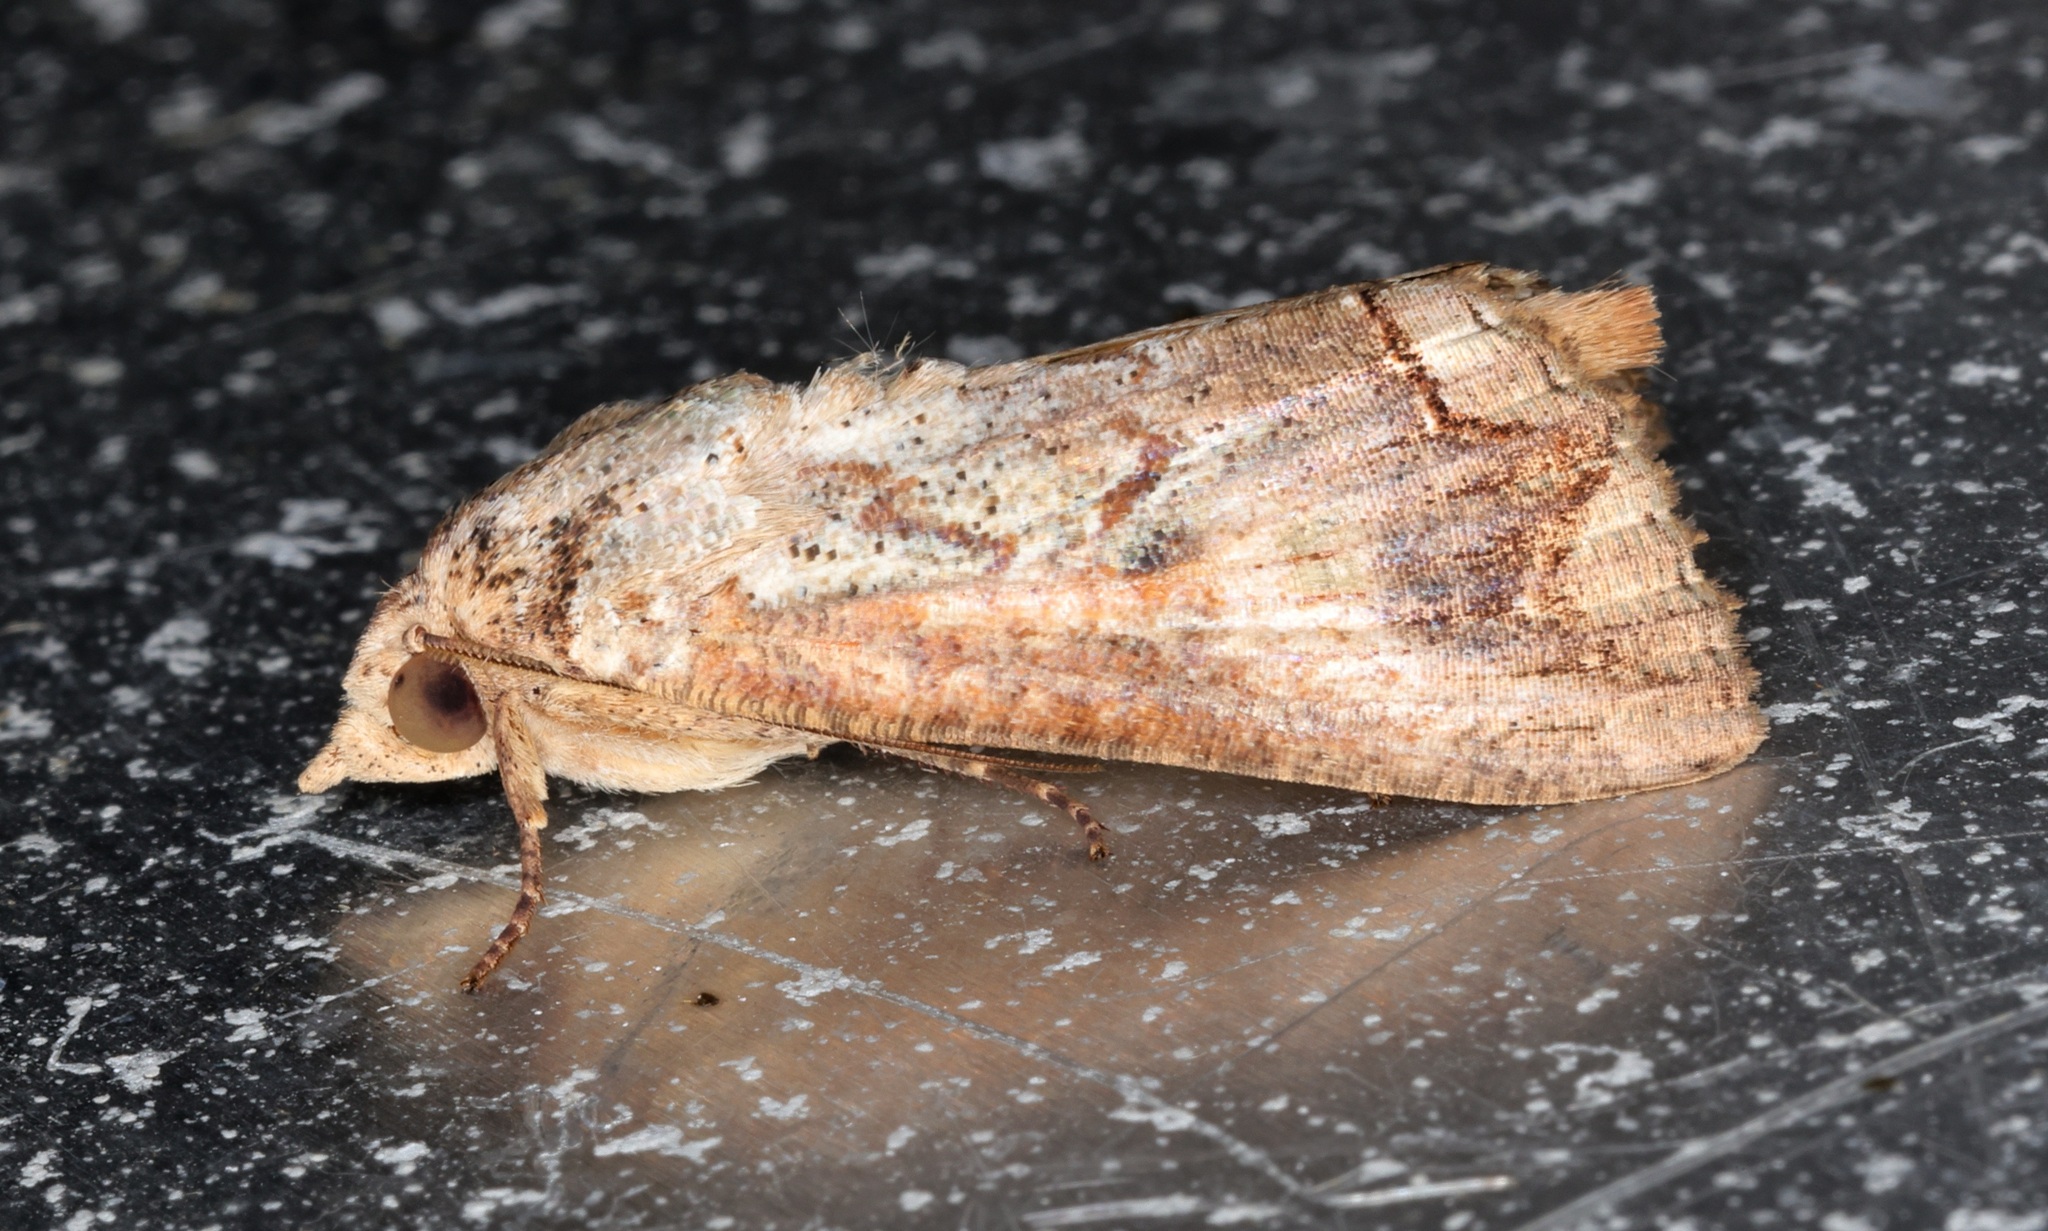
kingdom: Animalia
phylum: Arthropoda
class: Insecta
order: Lepidoptera
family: Erebidae
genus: Hypocala
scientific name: Hypocala deflorata
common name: Moth
